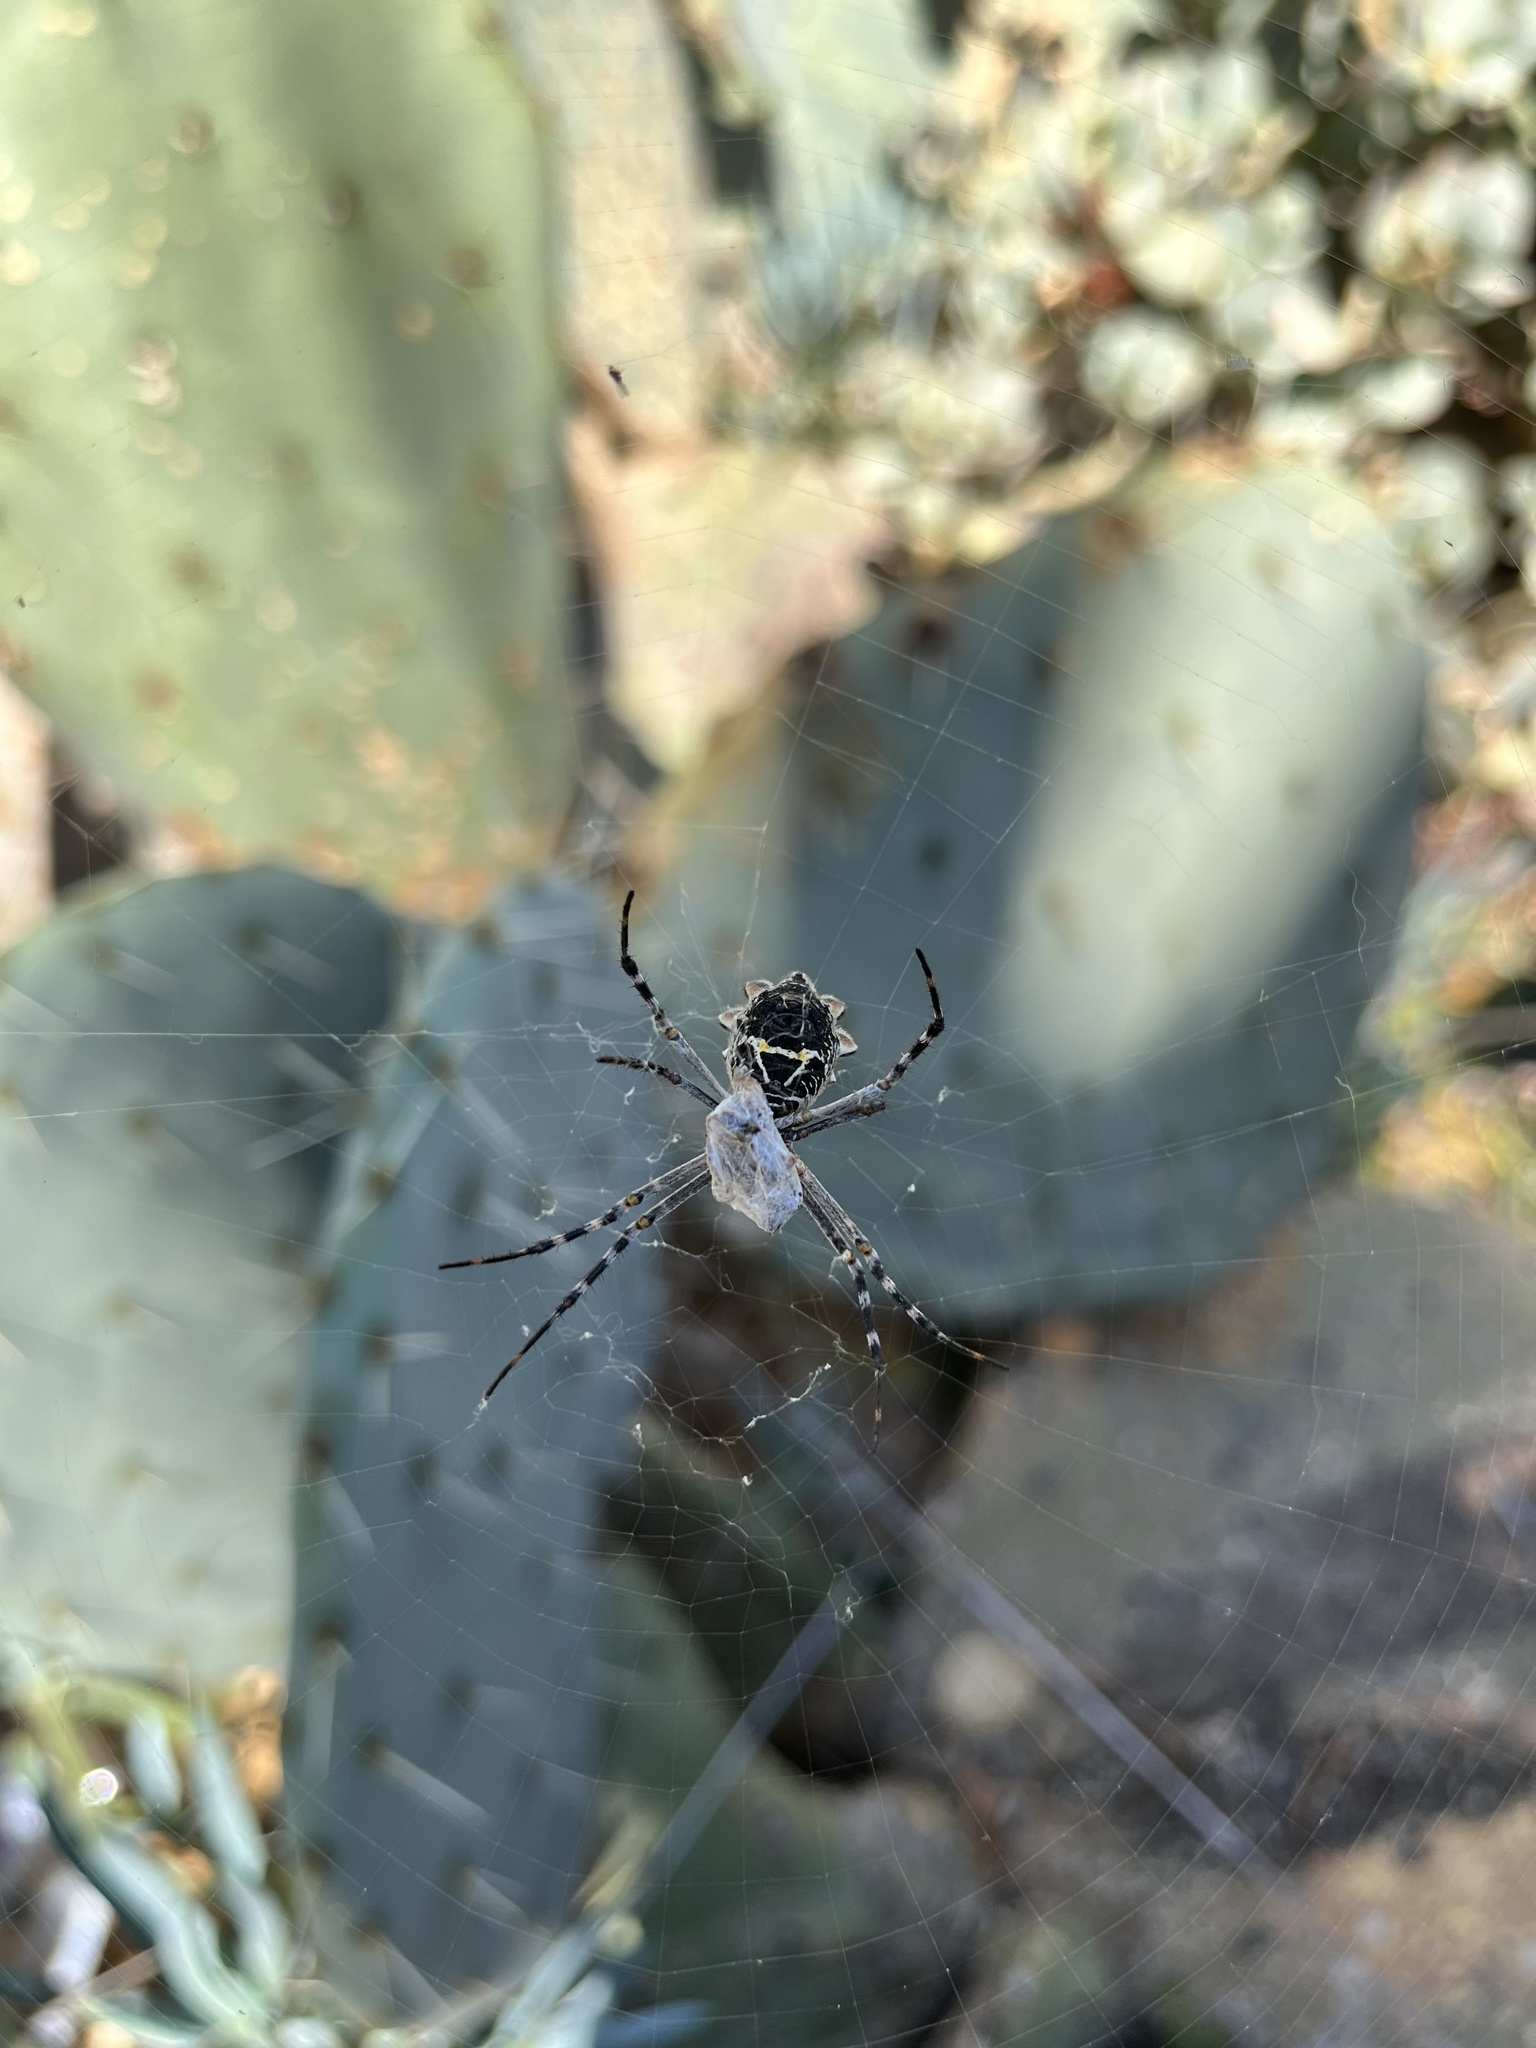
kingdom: Animalia
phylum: Arthropoda
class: Arachnida
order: Araneae
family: Araneidae
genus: Argiope
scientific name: Argiope argentata
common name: Orb weavers
